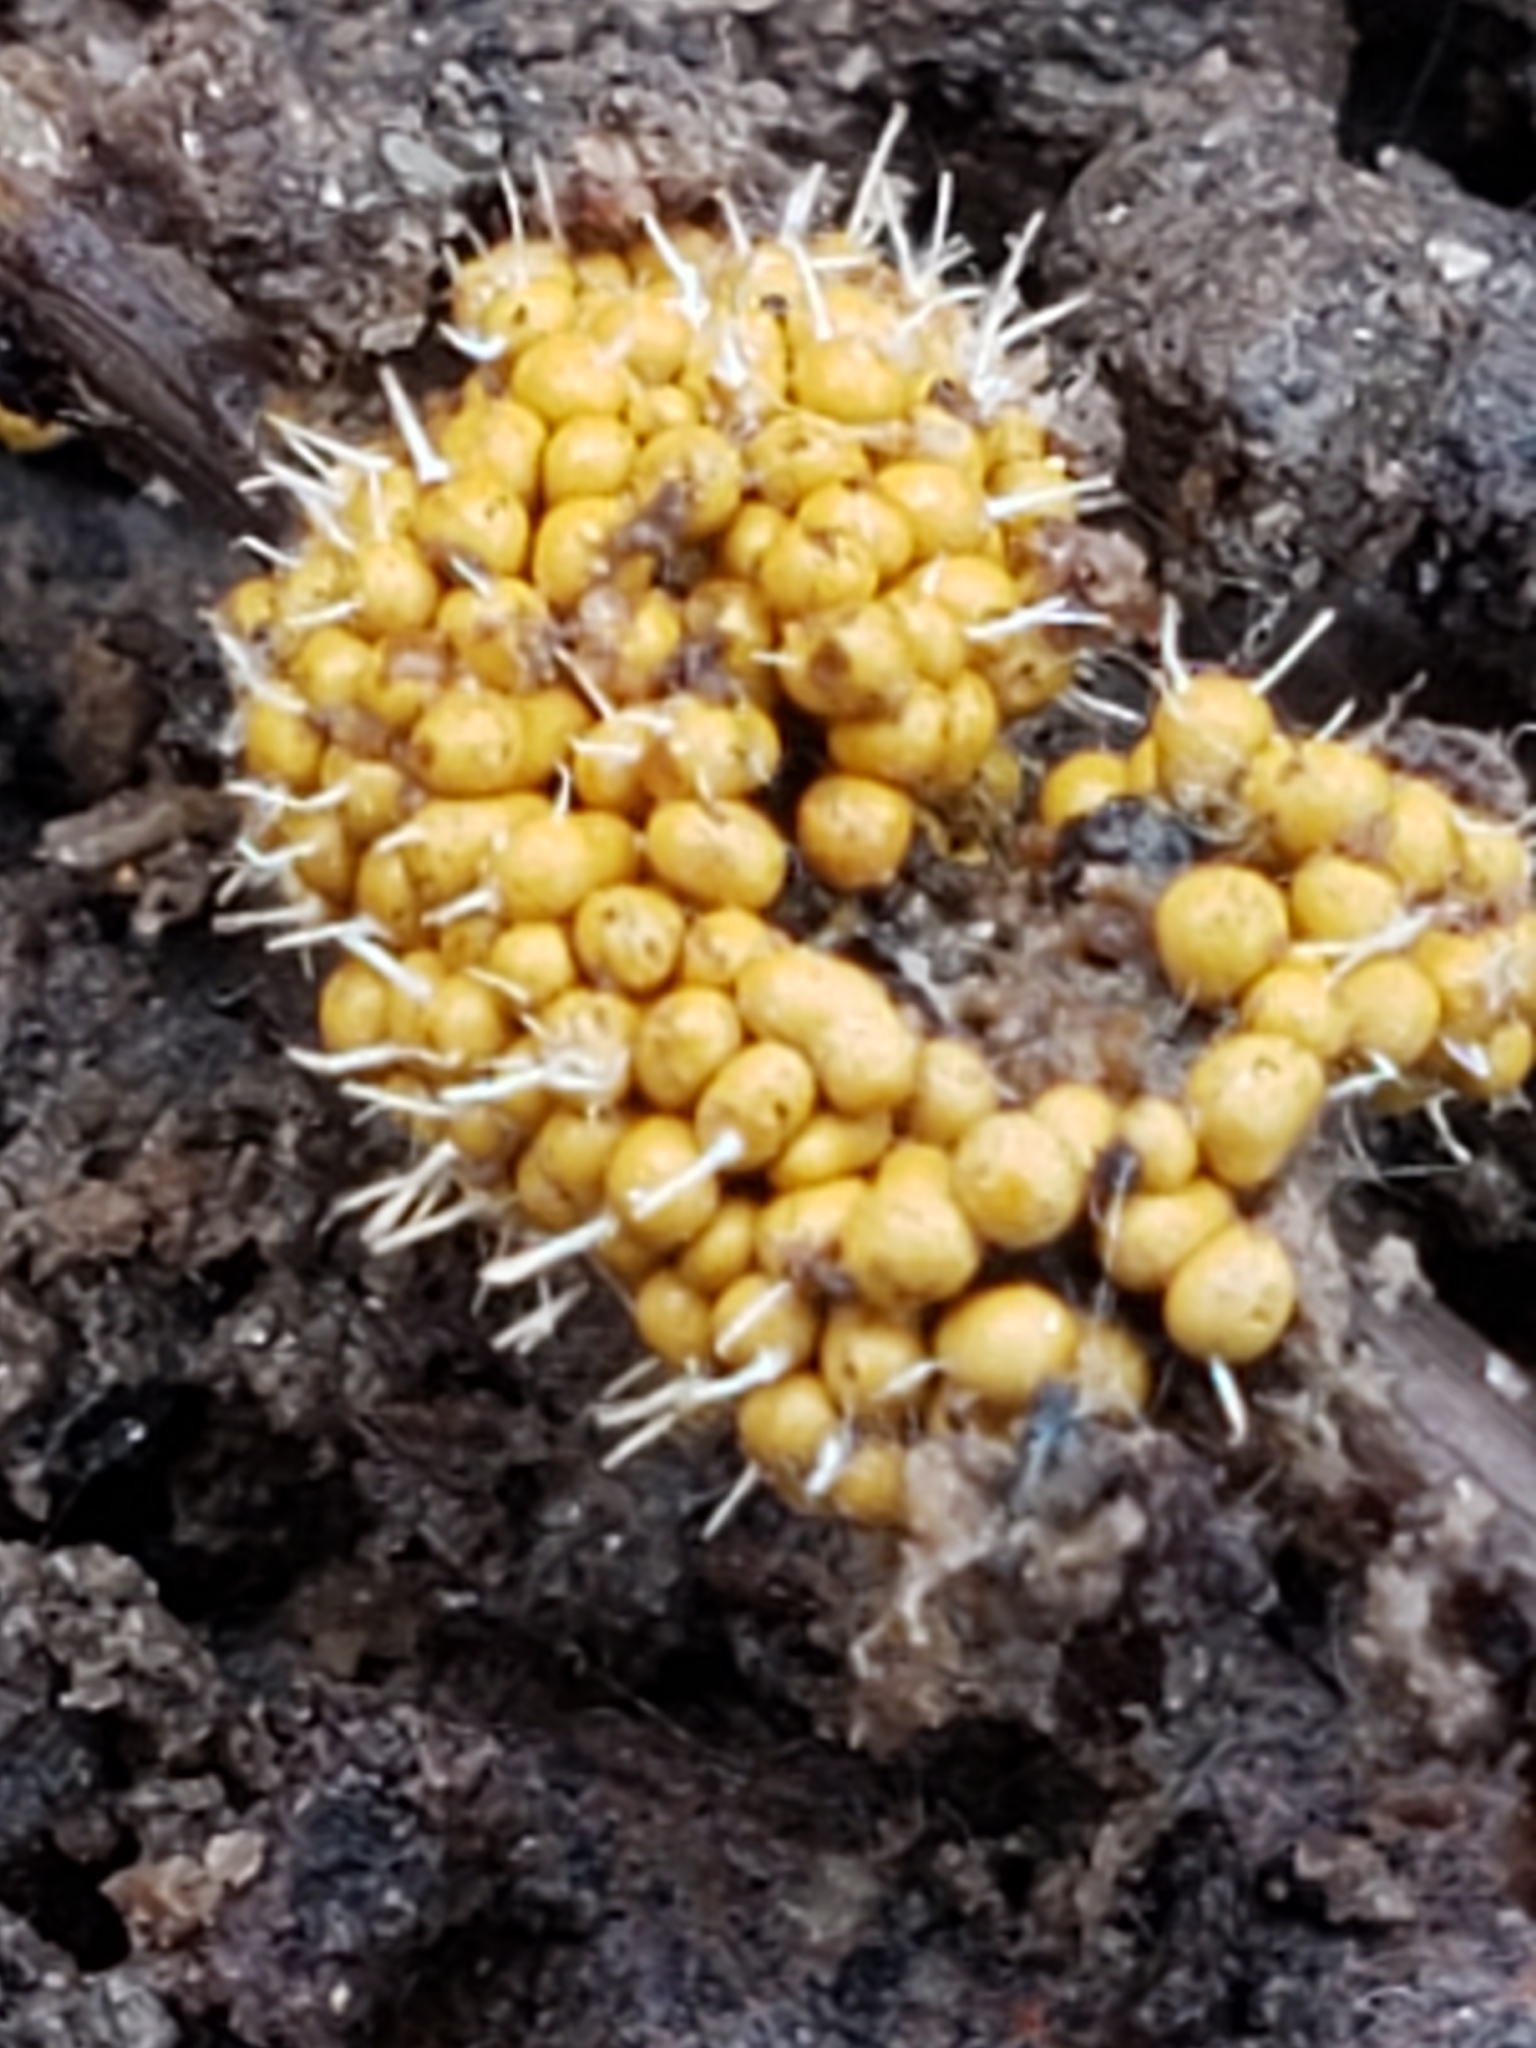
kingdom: Fungi
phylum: Ascomycota
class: Sordariomycetes
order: Hypocreales
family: Ophiocordycipitaceae
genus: Polycephalomyces
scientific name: Polycephalomyces tomentosus
